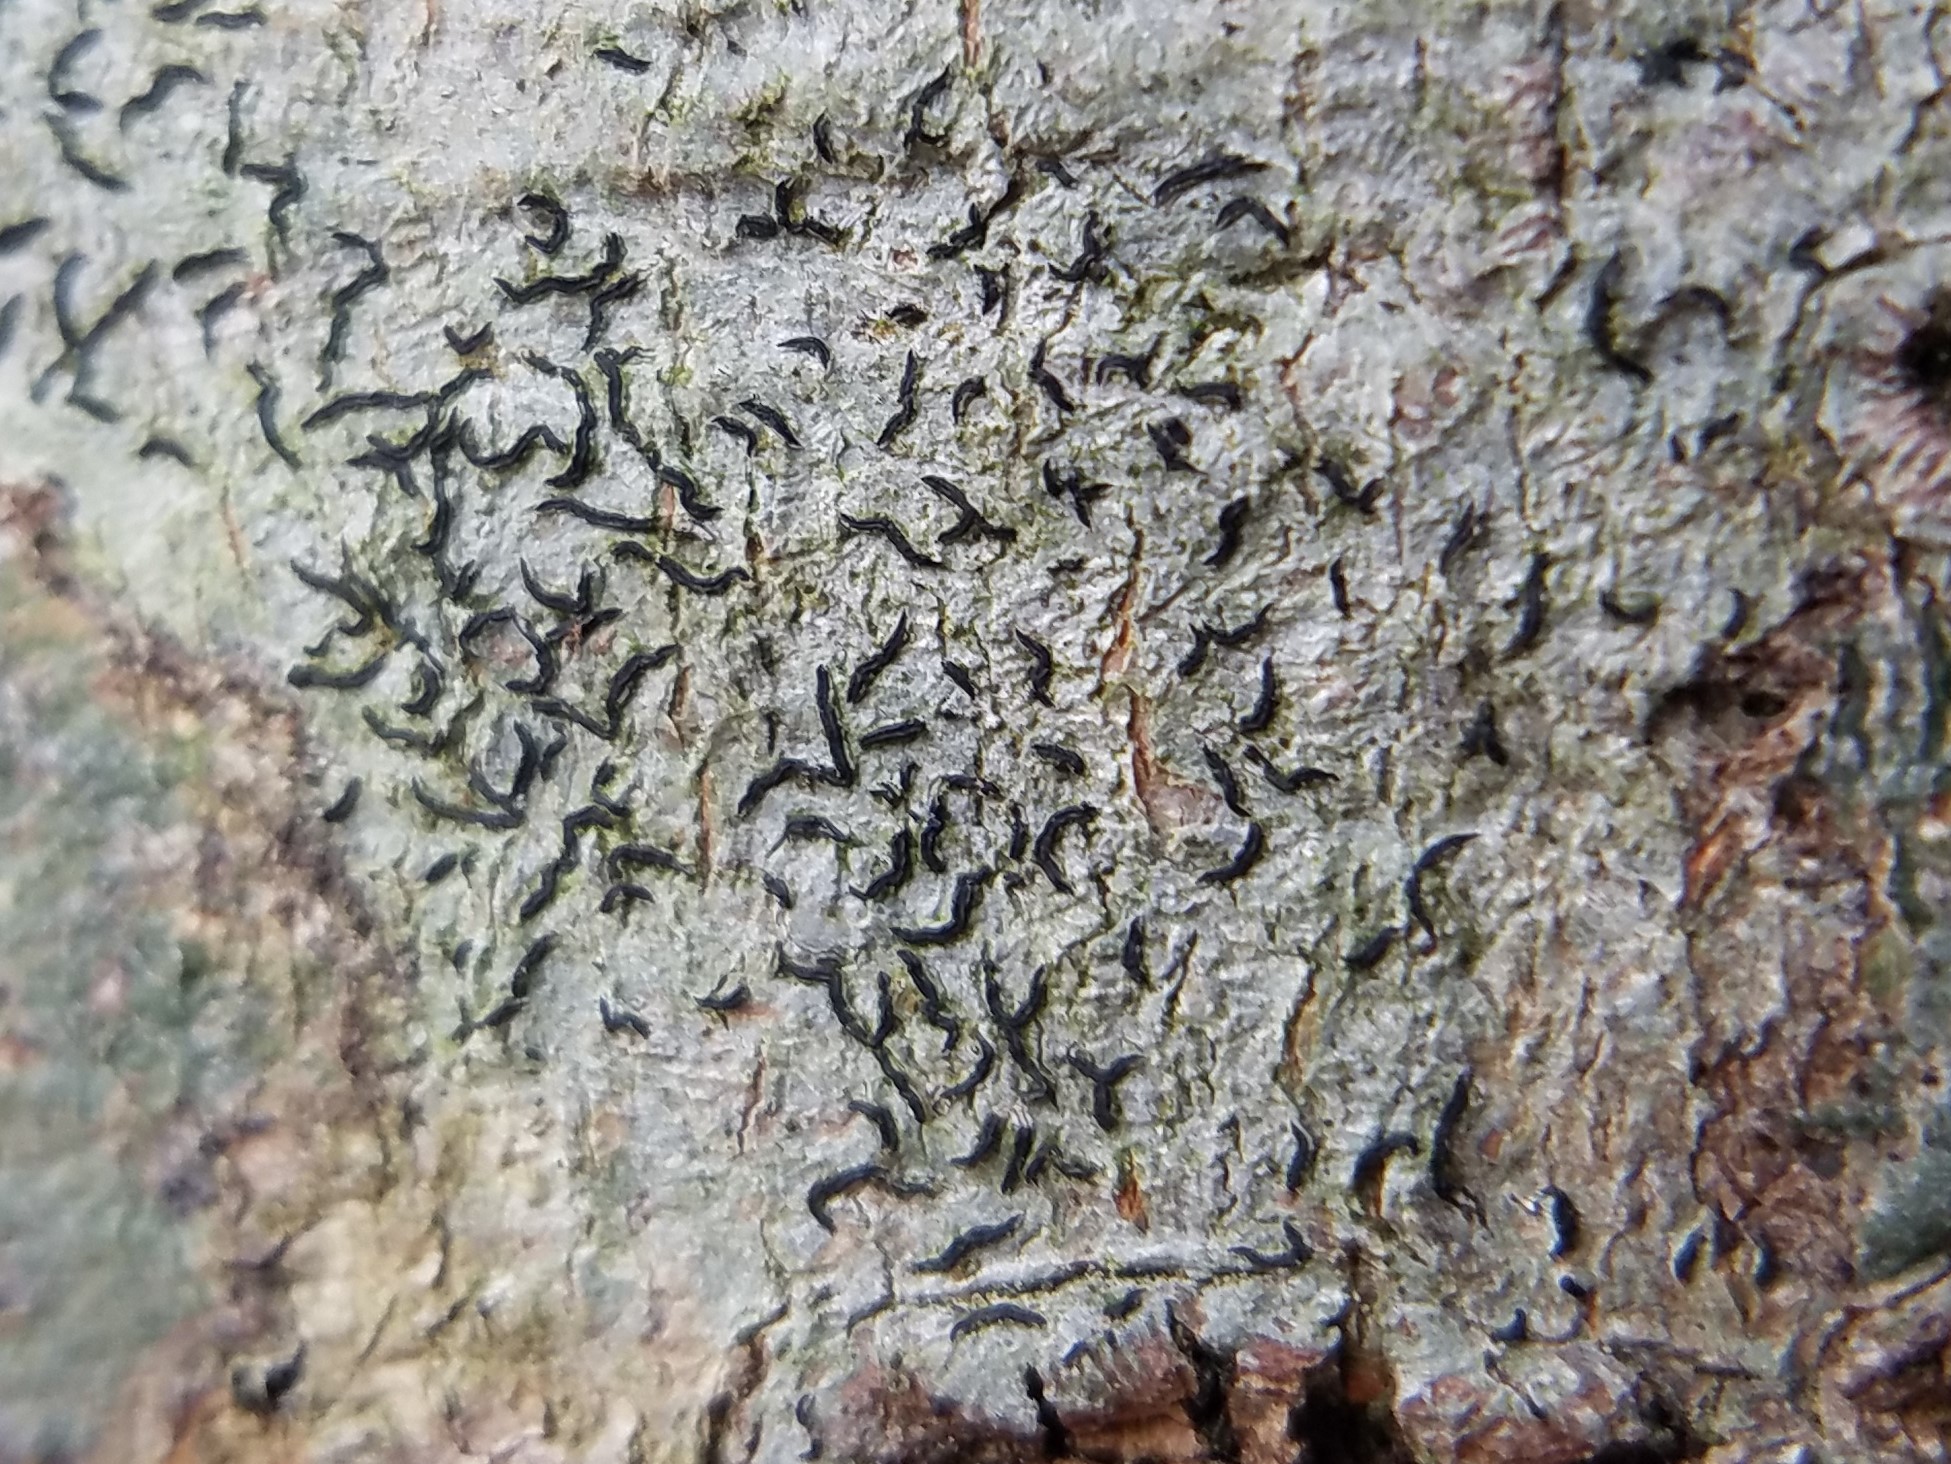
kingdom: Fungi
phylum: Ascomycota
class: Lecanoromycetes
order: Ostropales
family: Graphidaceae
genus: Graphis
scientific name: Graphis lineola
